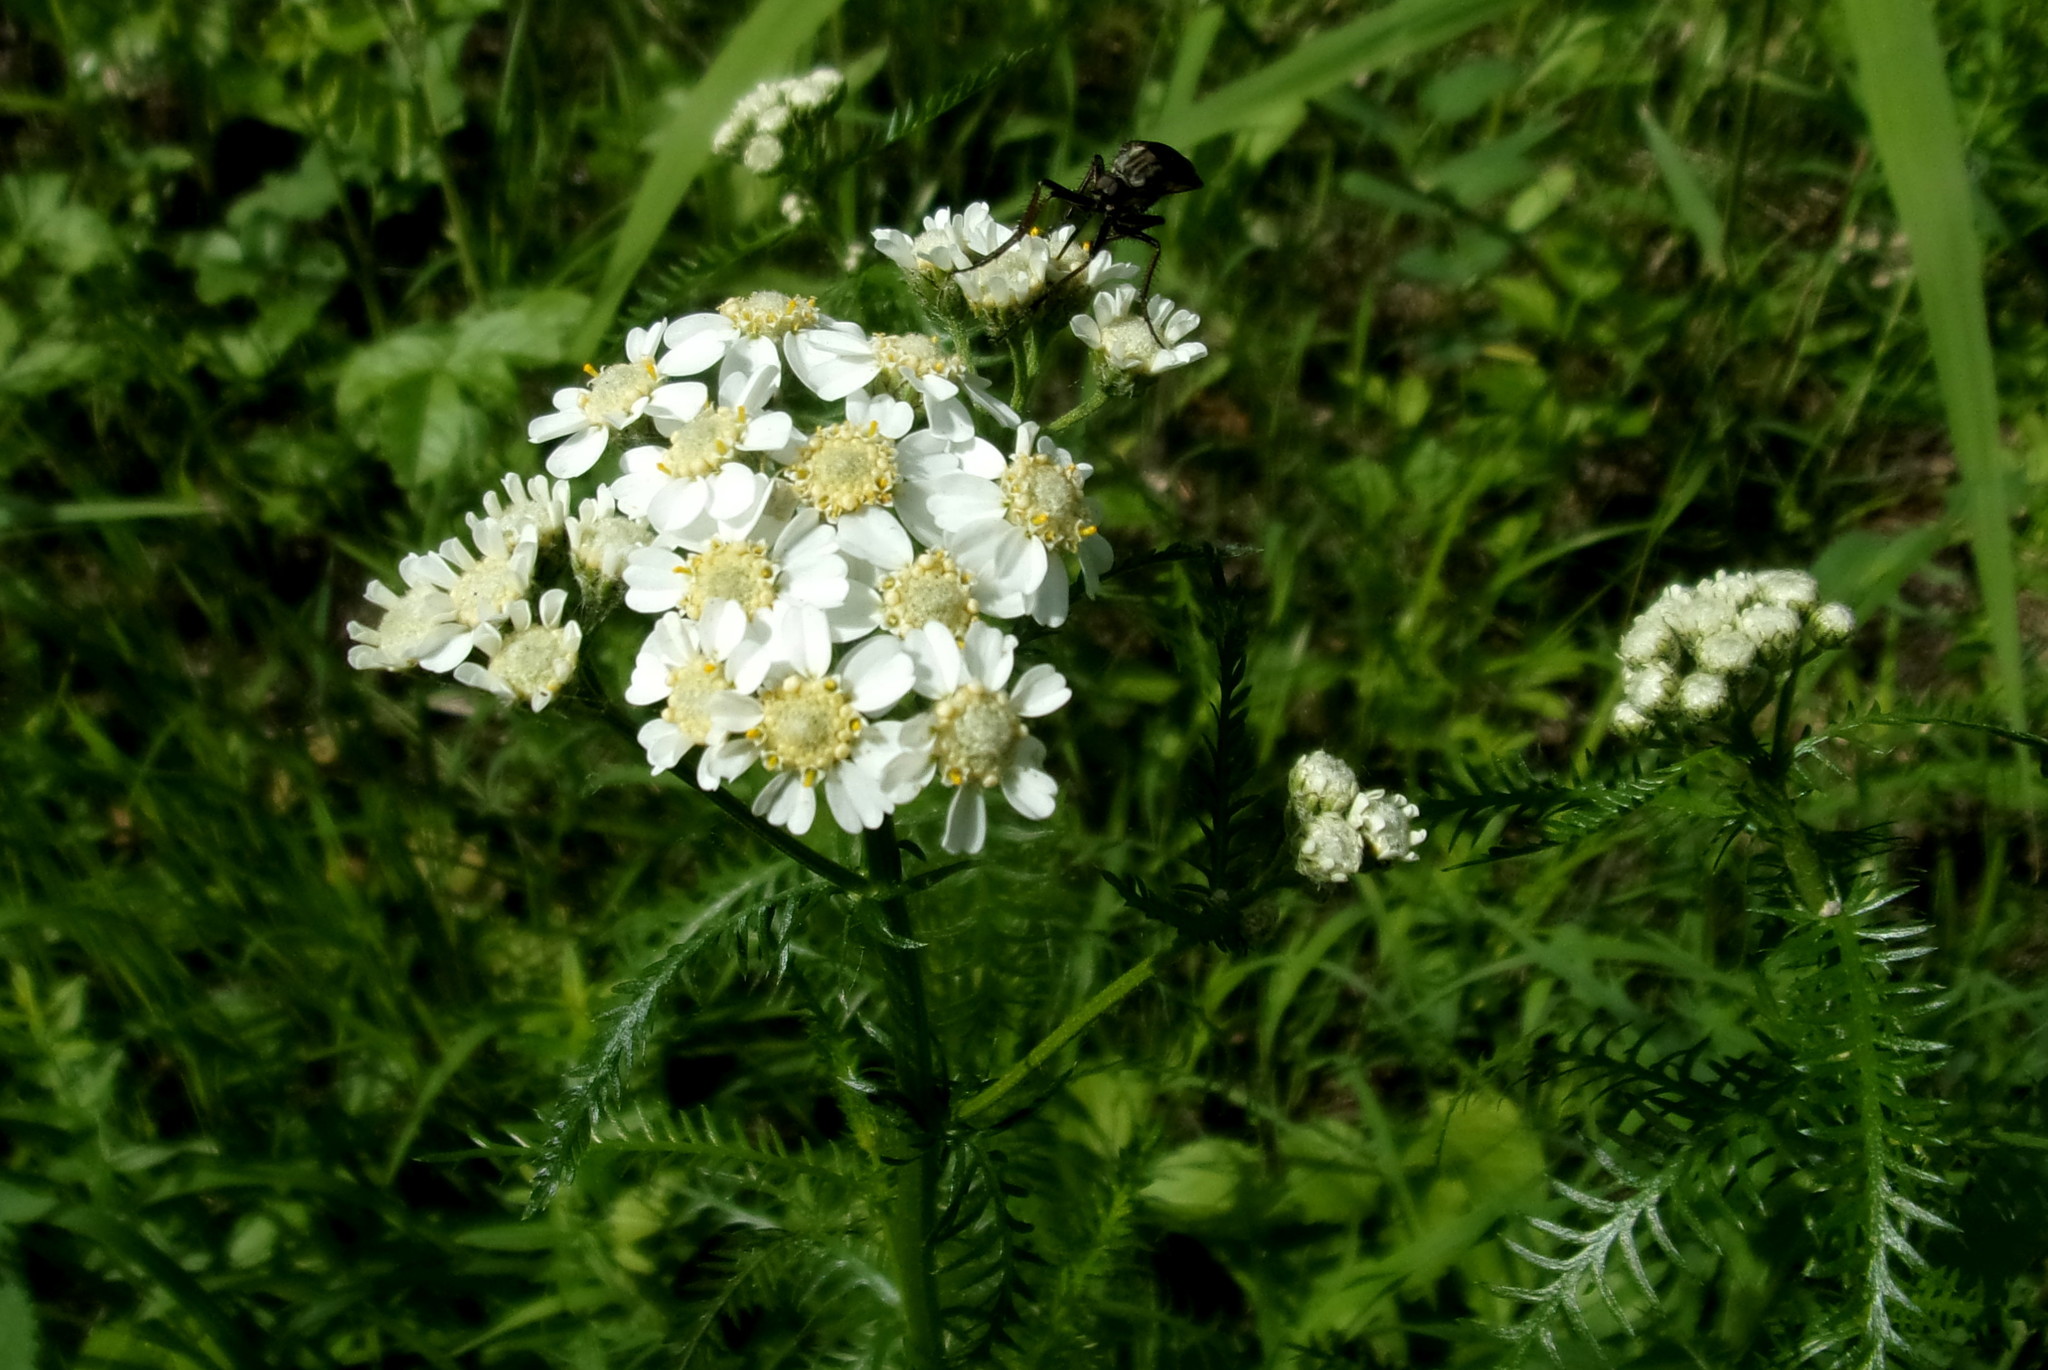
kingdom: Plantae
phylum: Tracheophyta
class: Magnoliopsida
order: Asterales
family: Asteraceae
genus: Achillea
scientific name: Achillea impatiens
